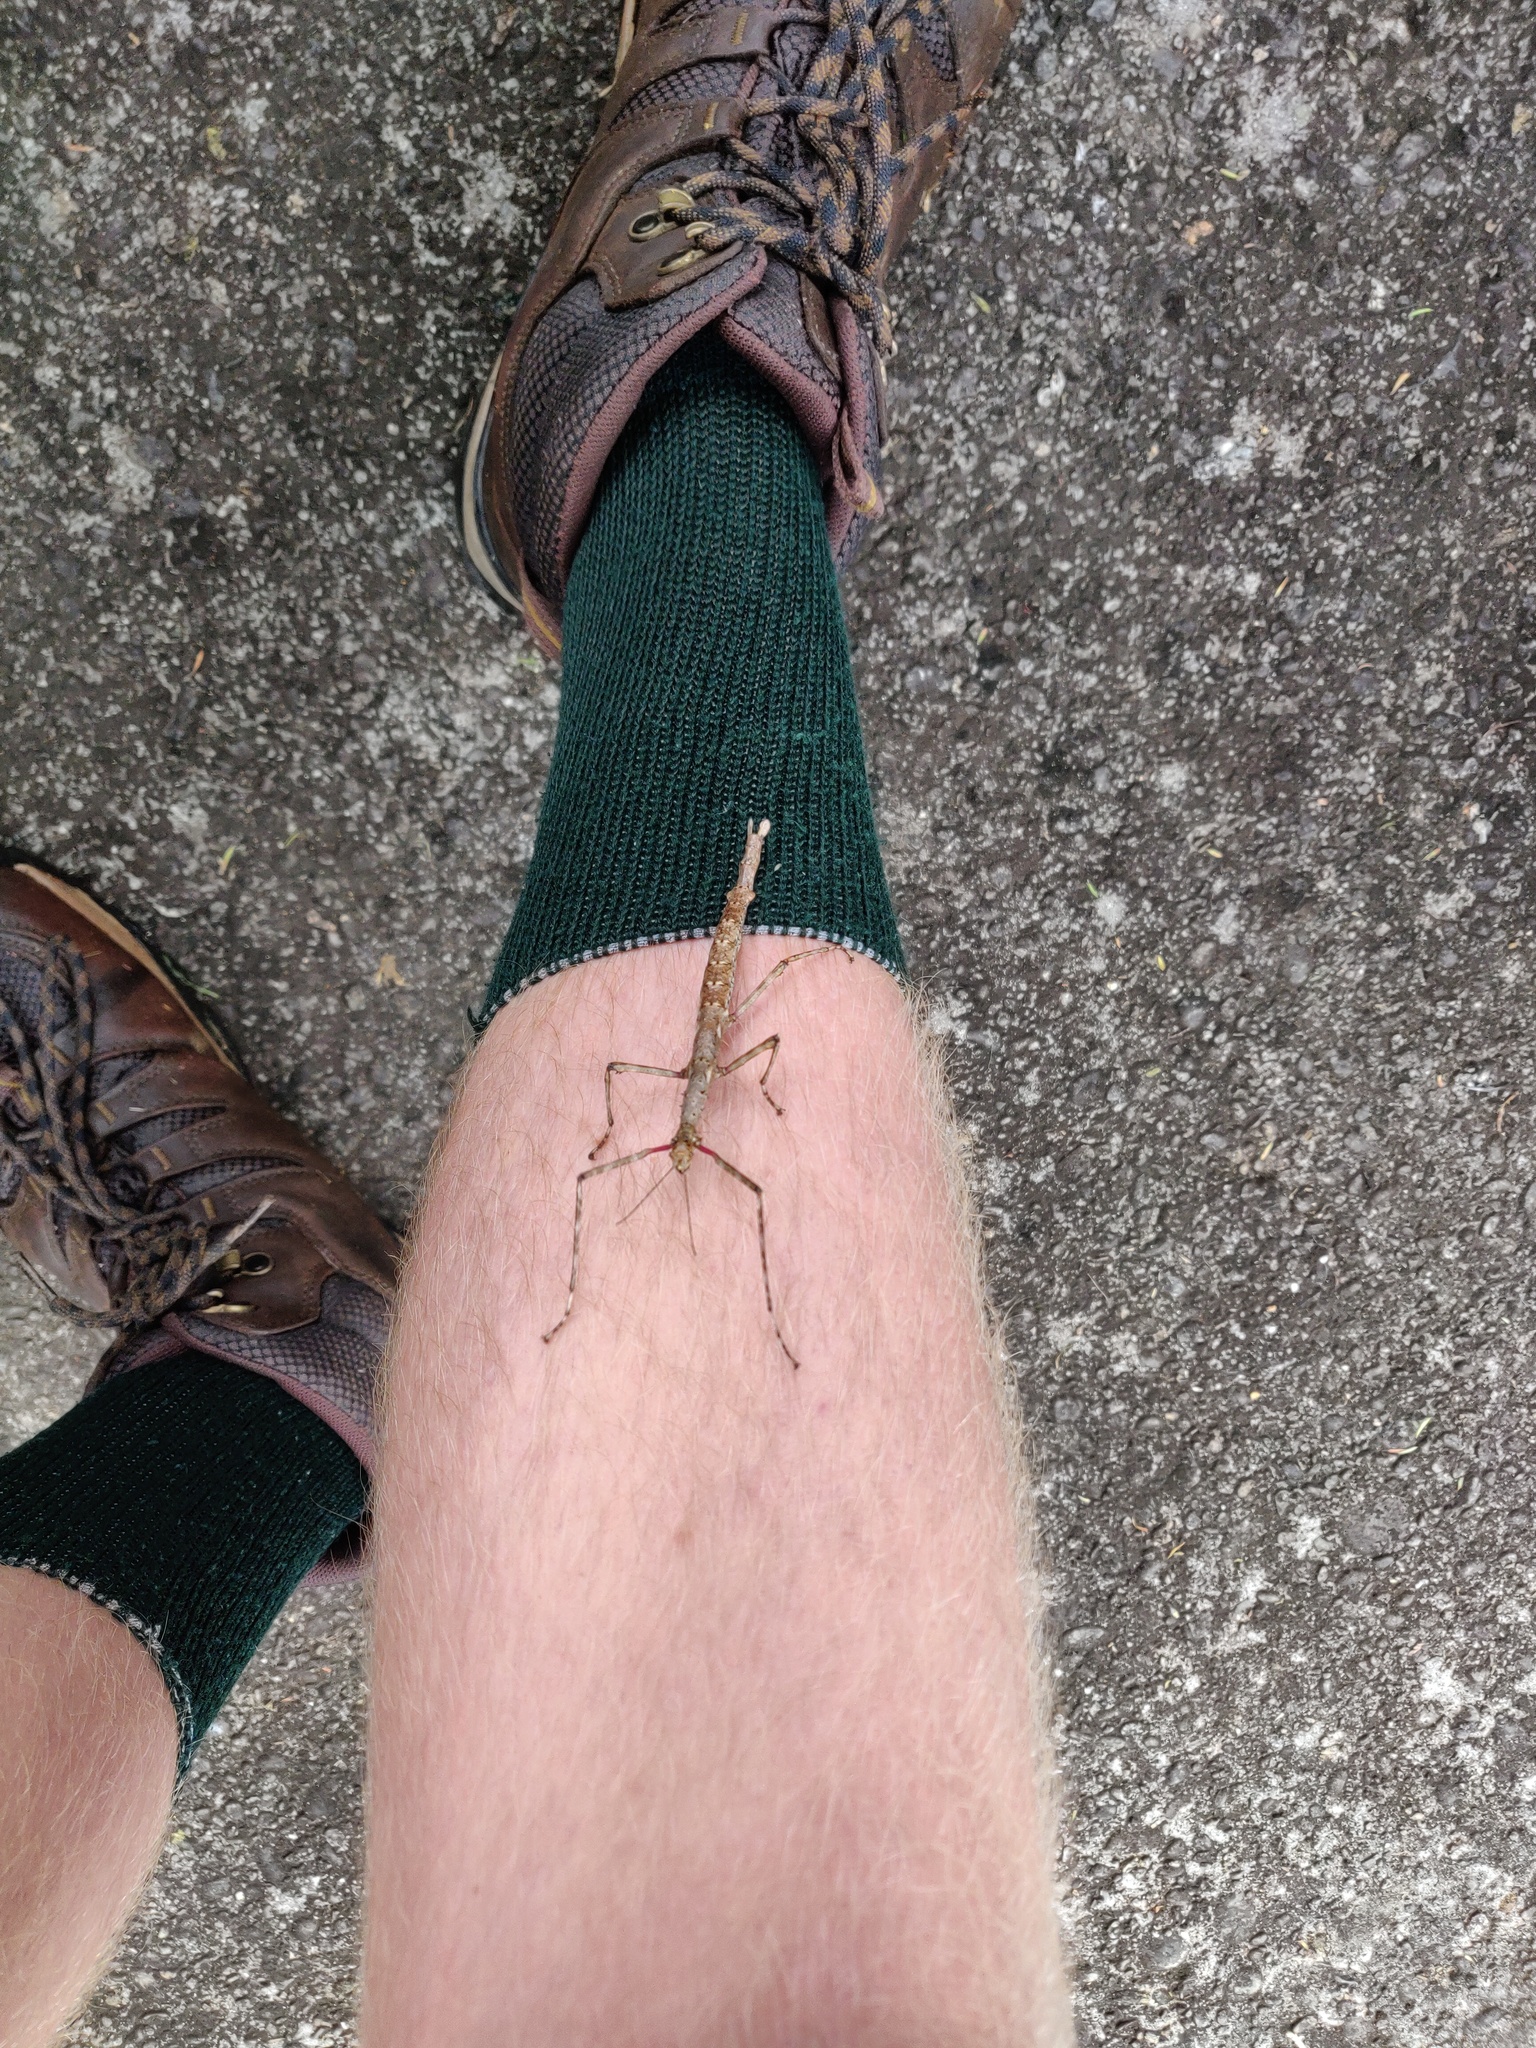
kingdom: Animalia
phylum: Arthropoda
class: Insecta
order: Phasmida
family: Phasmatidae
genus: Acanthoxyla
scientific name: Acanthoxyla prasina
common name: Black-spined stick insect
